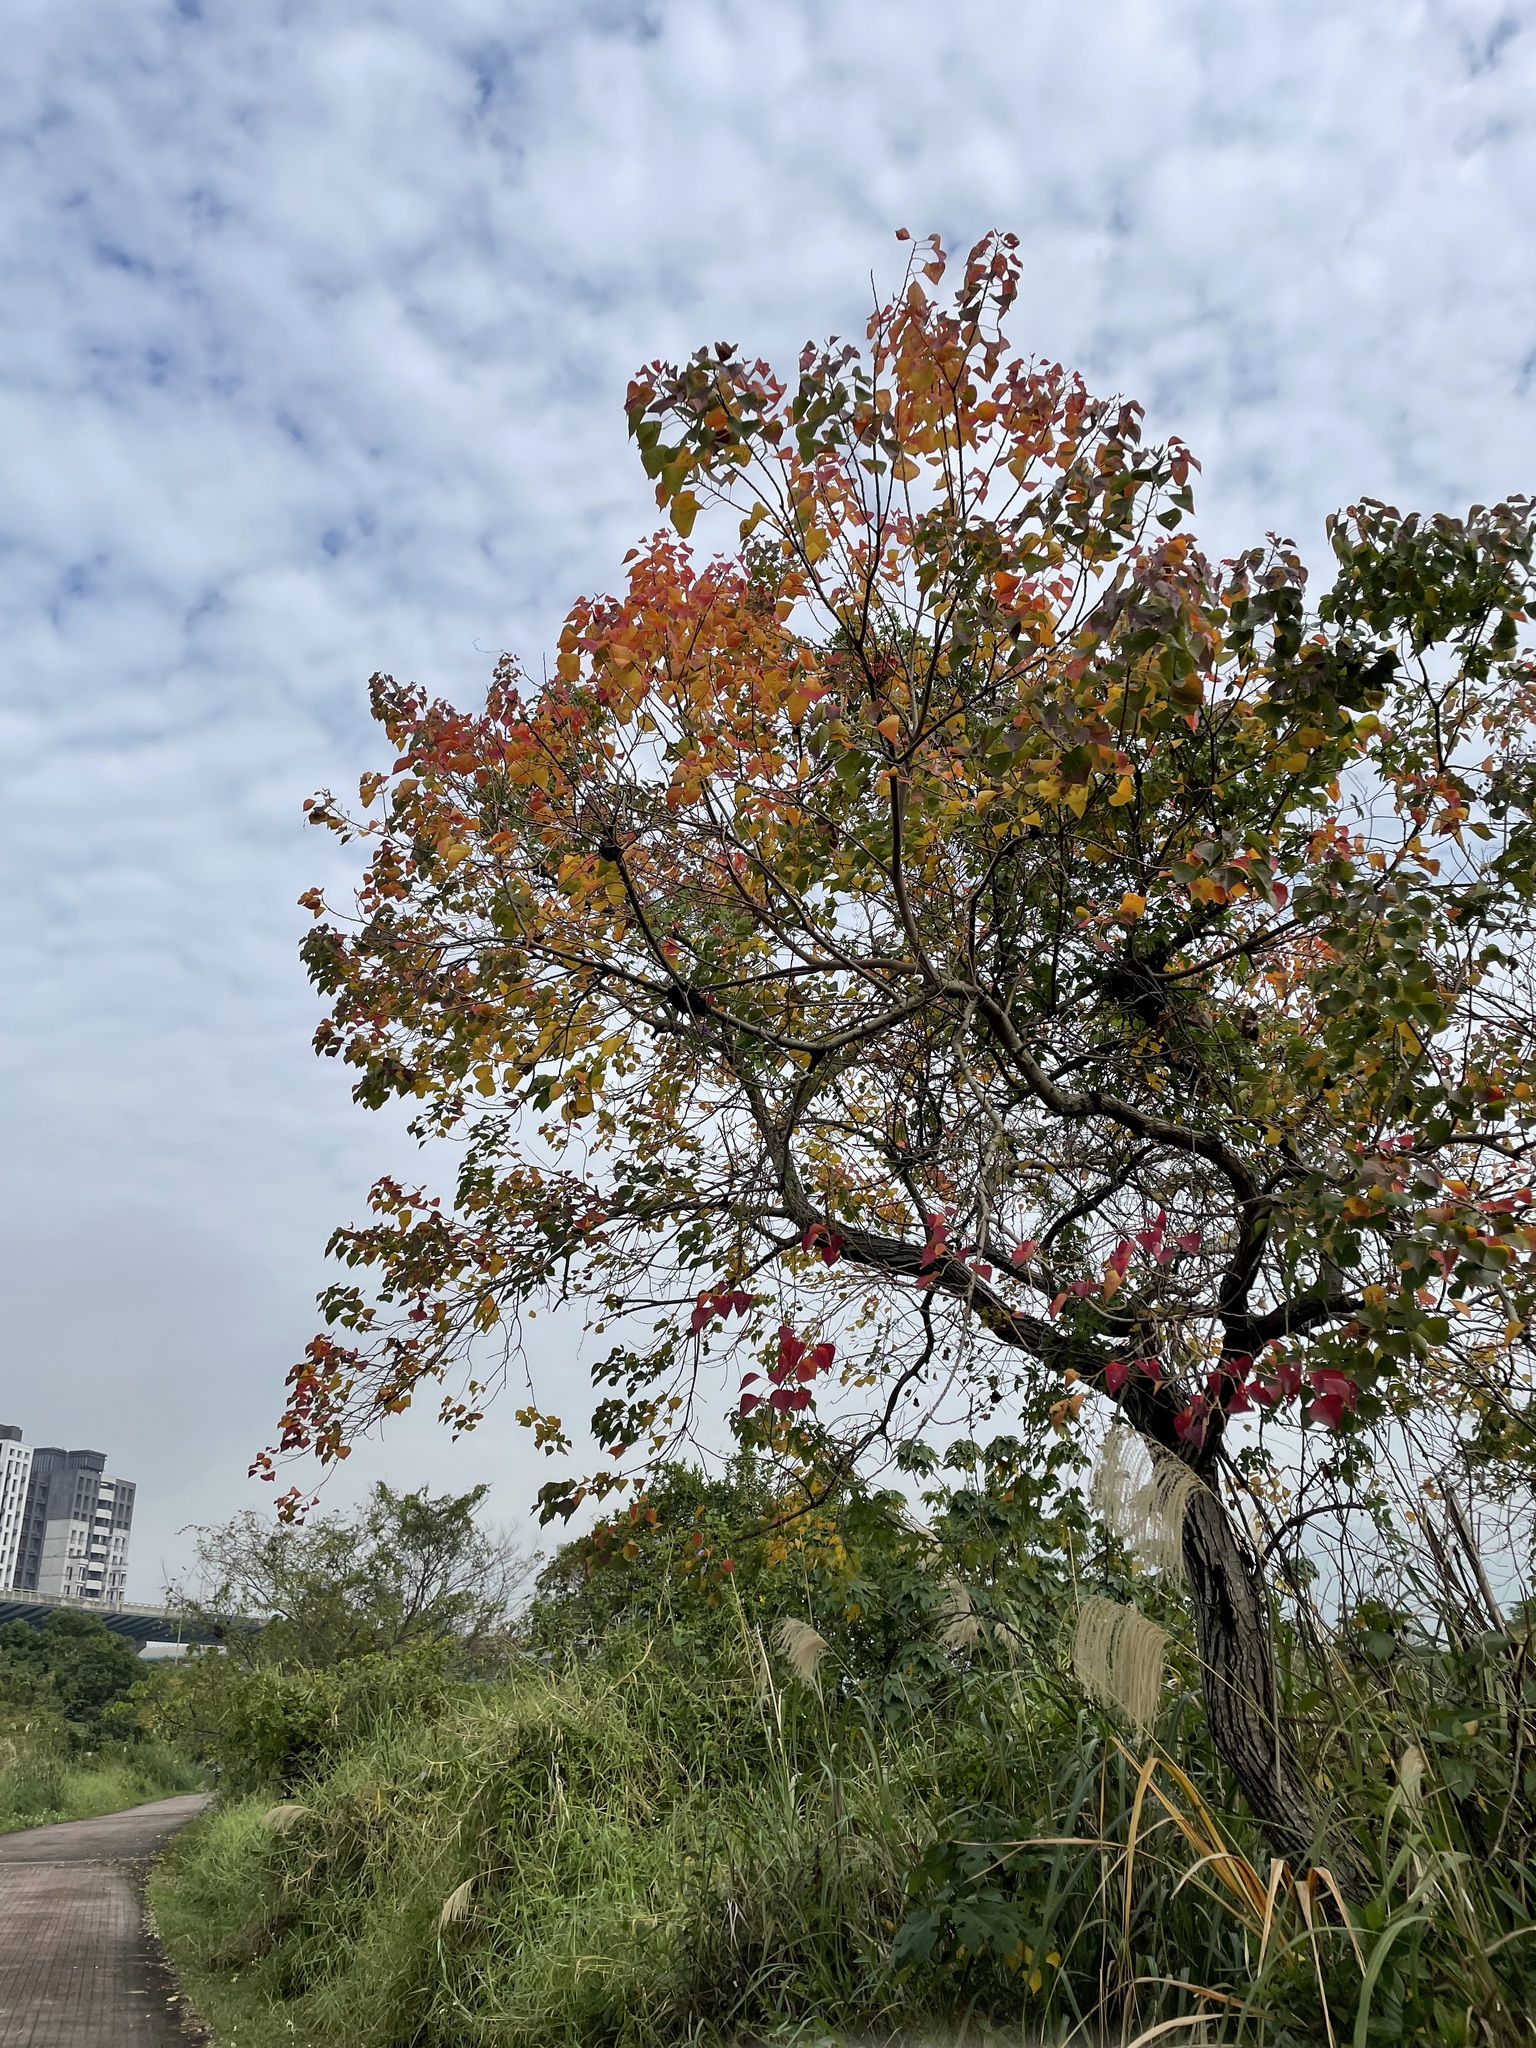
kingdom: Plantae
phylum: Tracheophyta
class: Magnoliopsida
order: Malpighiales
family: Euphorbiaceae
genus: Triadica
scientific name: Triadica sebifera
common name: Chinese tallow
